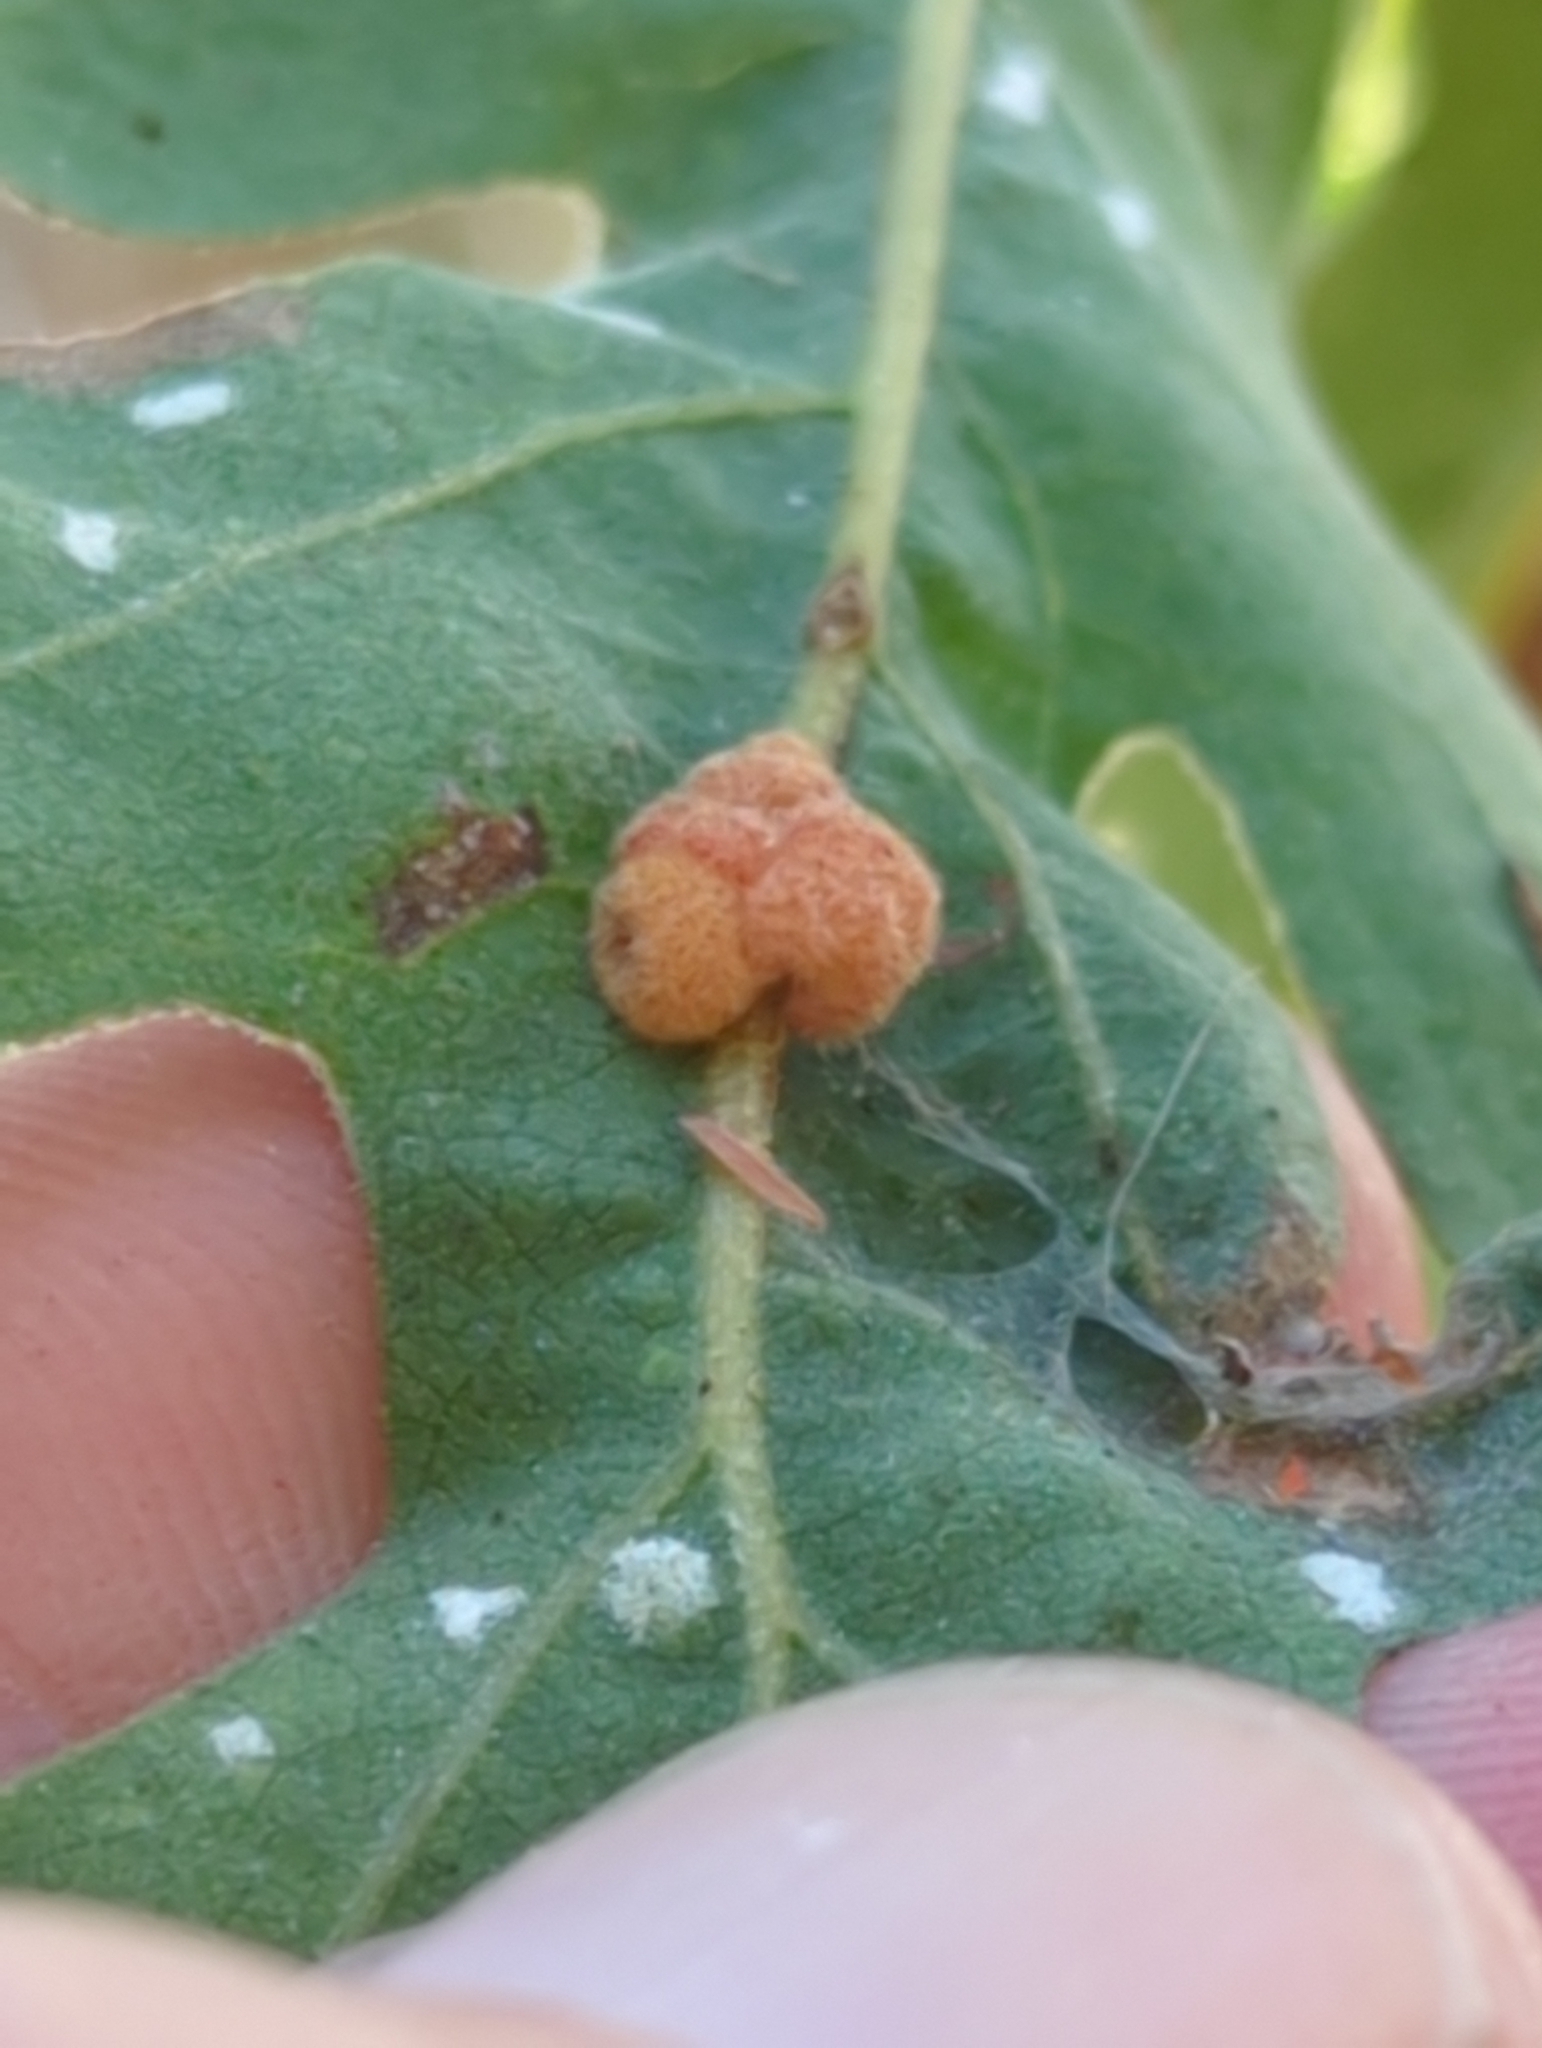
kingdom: Animalia
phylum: Arthropoda
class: Insecta
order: Hymenoptera
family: Cynipidae
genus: Andricus
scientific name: Andricus
